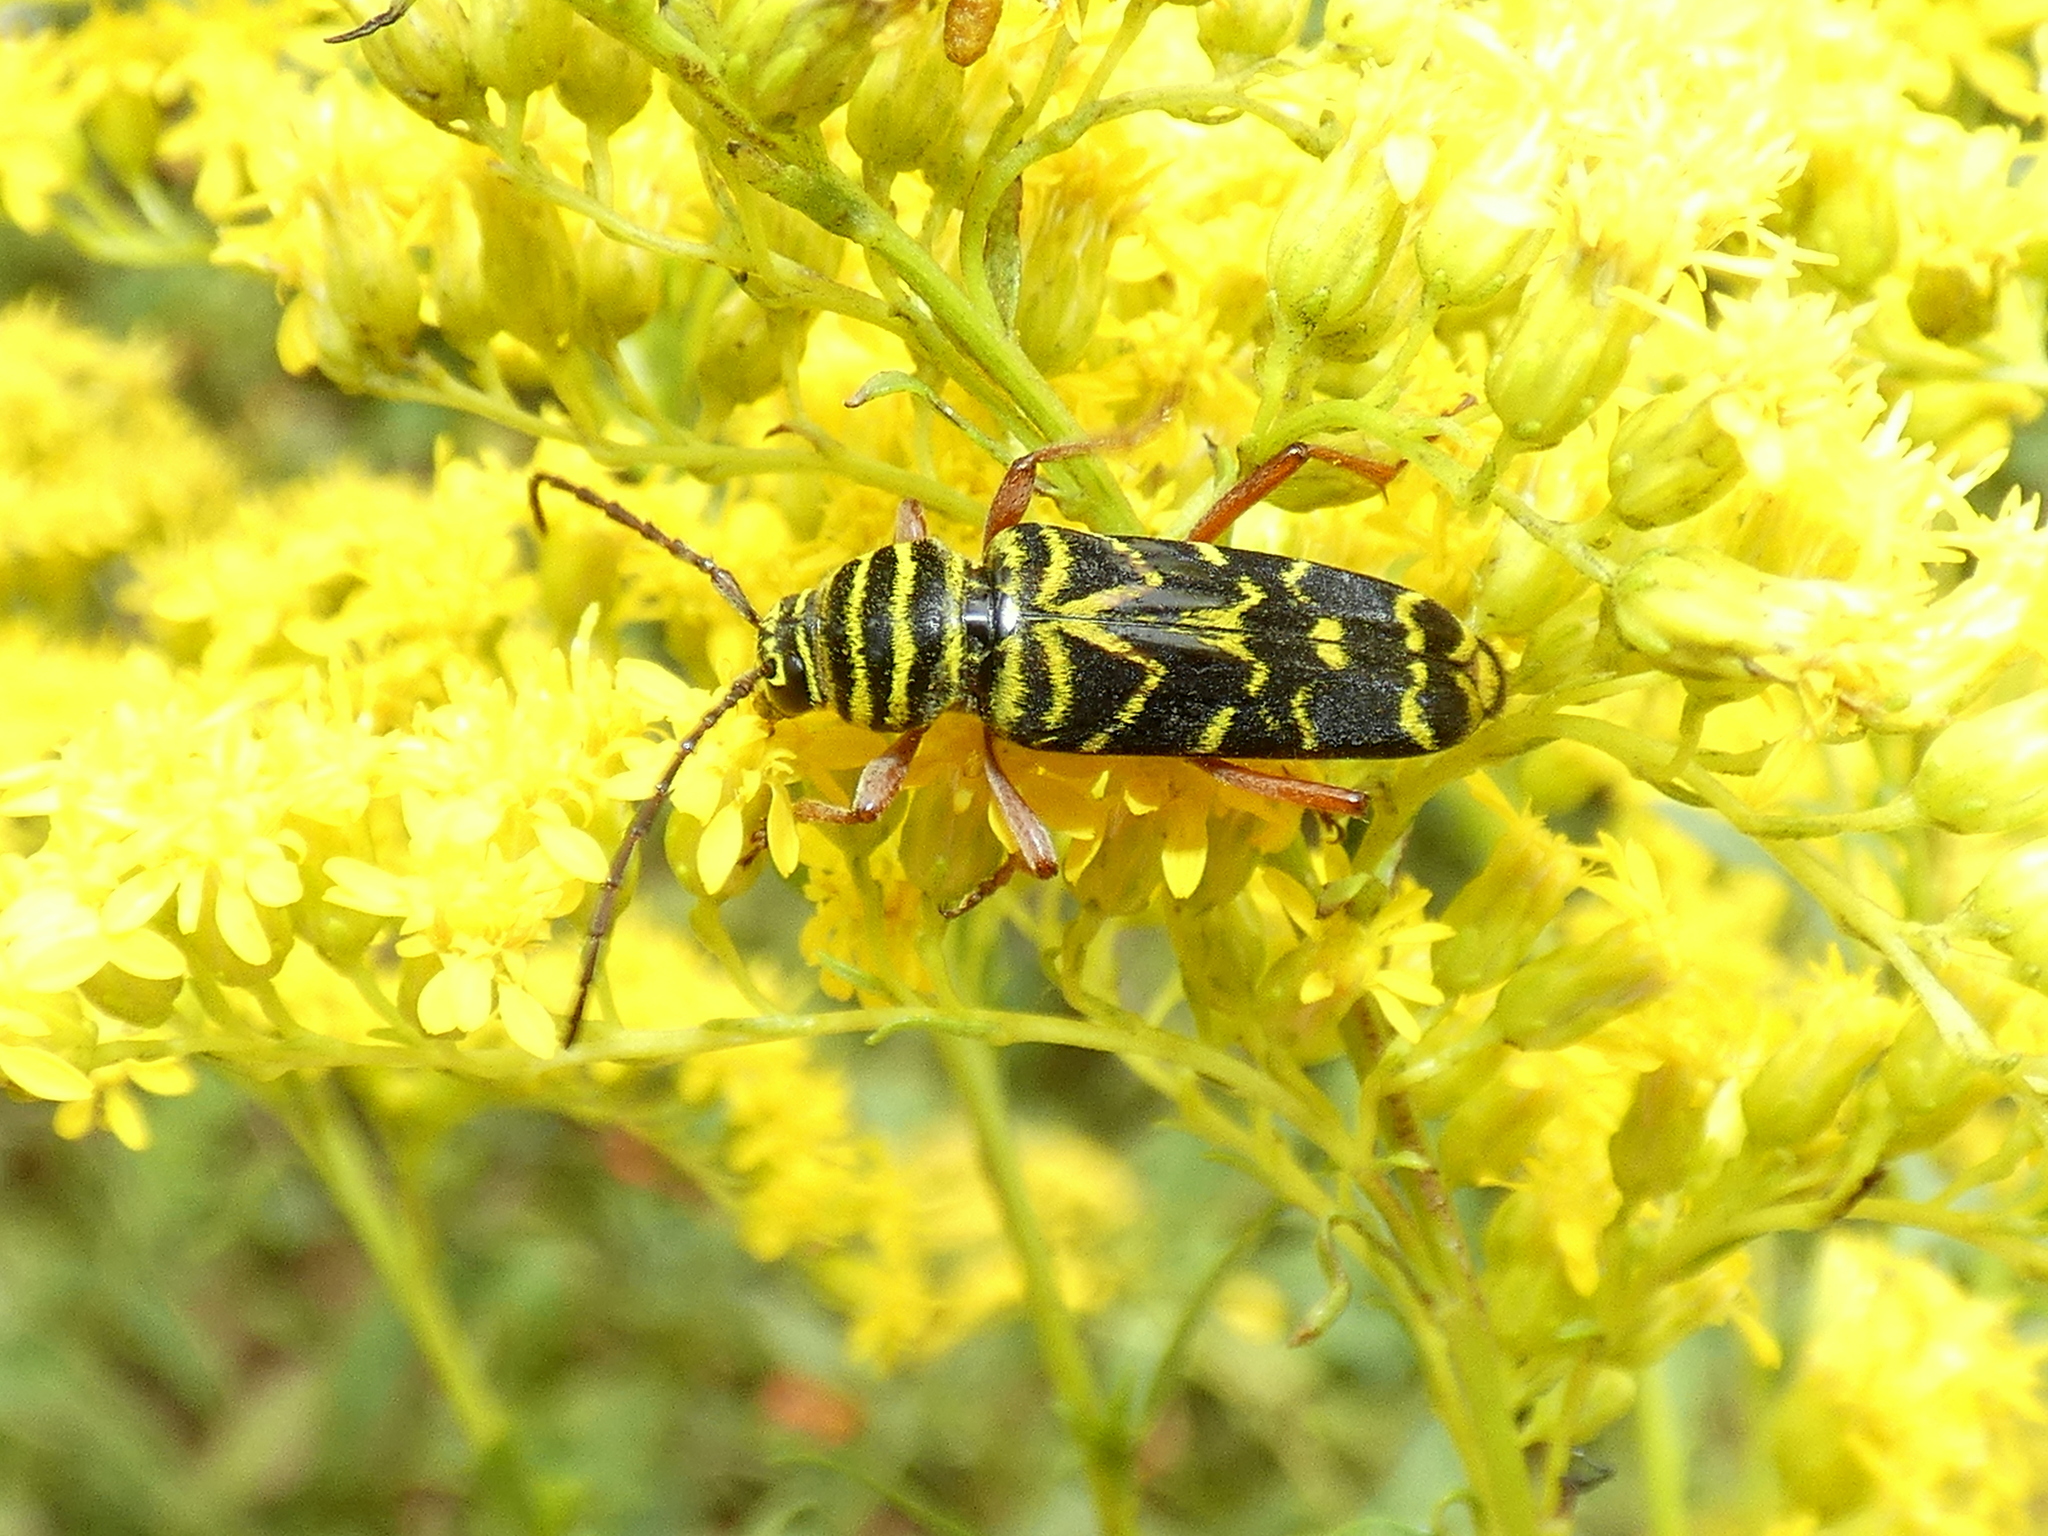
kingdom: Animalia
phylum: Arthropoda
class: Insecta
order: Coleoptera
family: Cerambycidae
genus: Megacyllene
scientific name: Megacyllene robiniae
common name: Locust borer
